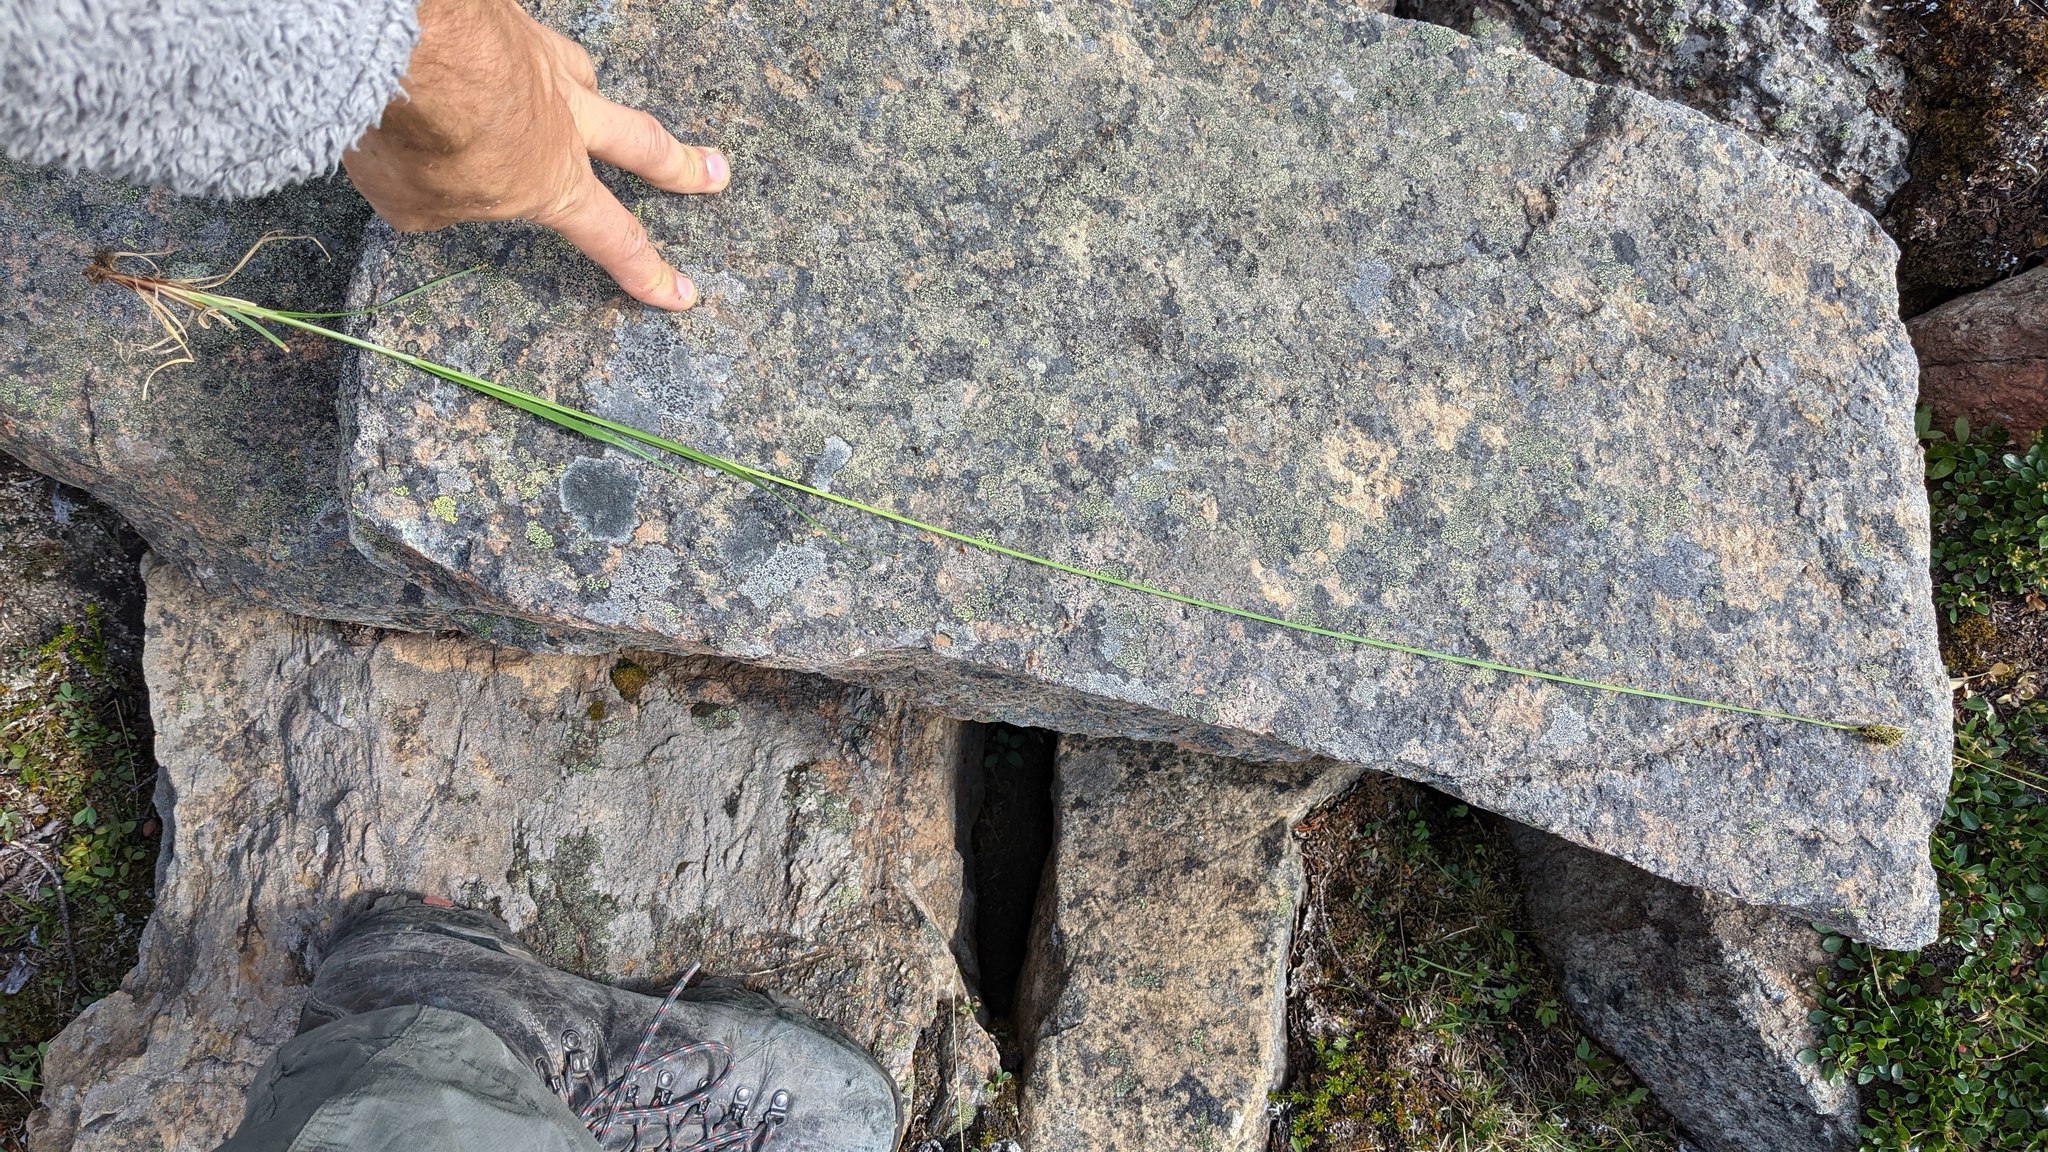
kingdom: Plantae
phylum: Tracheophyta
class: Liliopsida
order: Poales
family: Cyperaceae
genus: Carex
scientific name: Carex atrosquama
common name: Black-scale sedge
